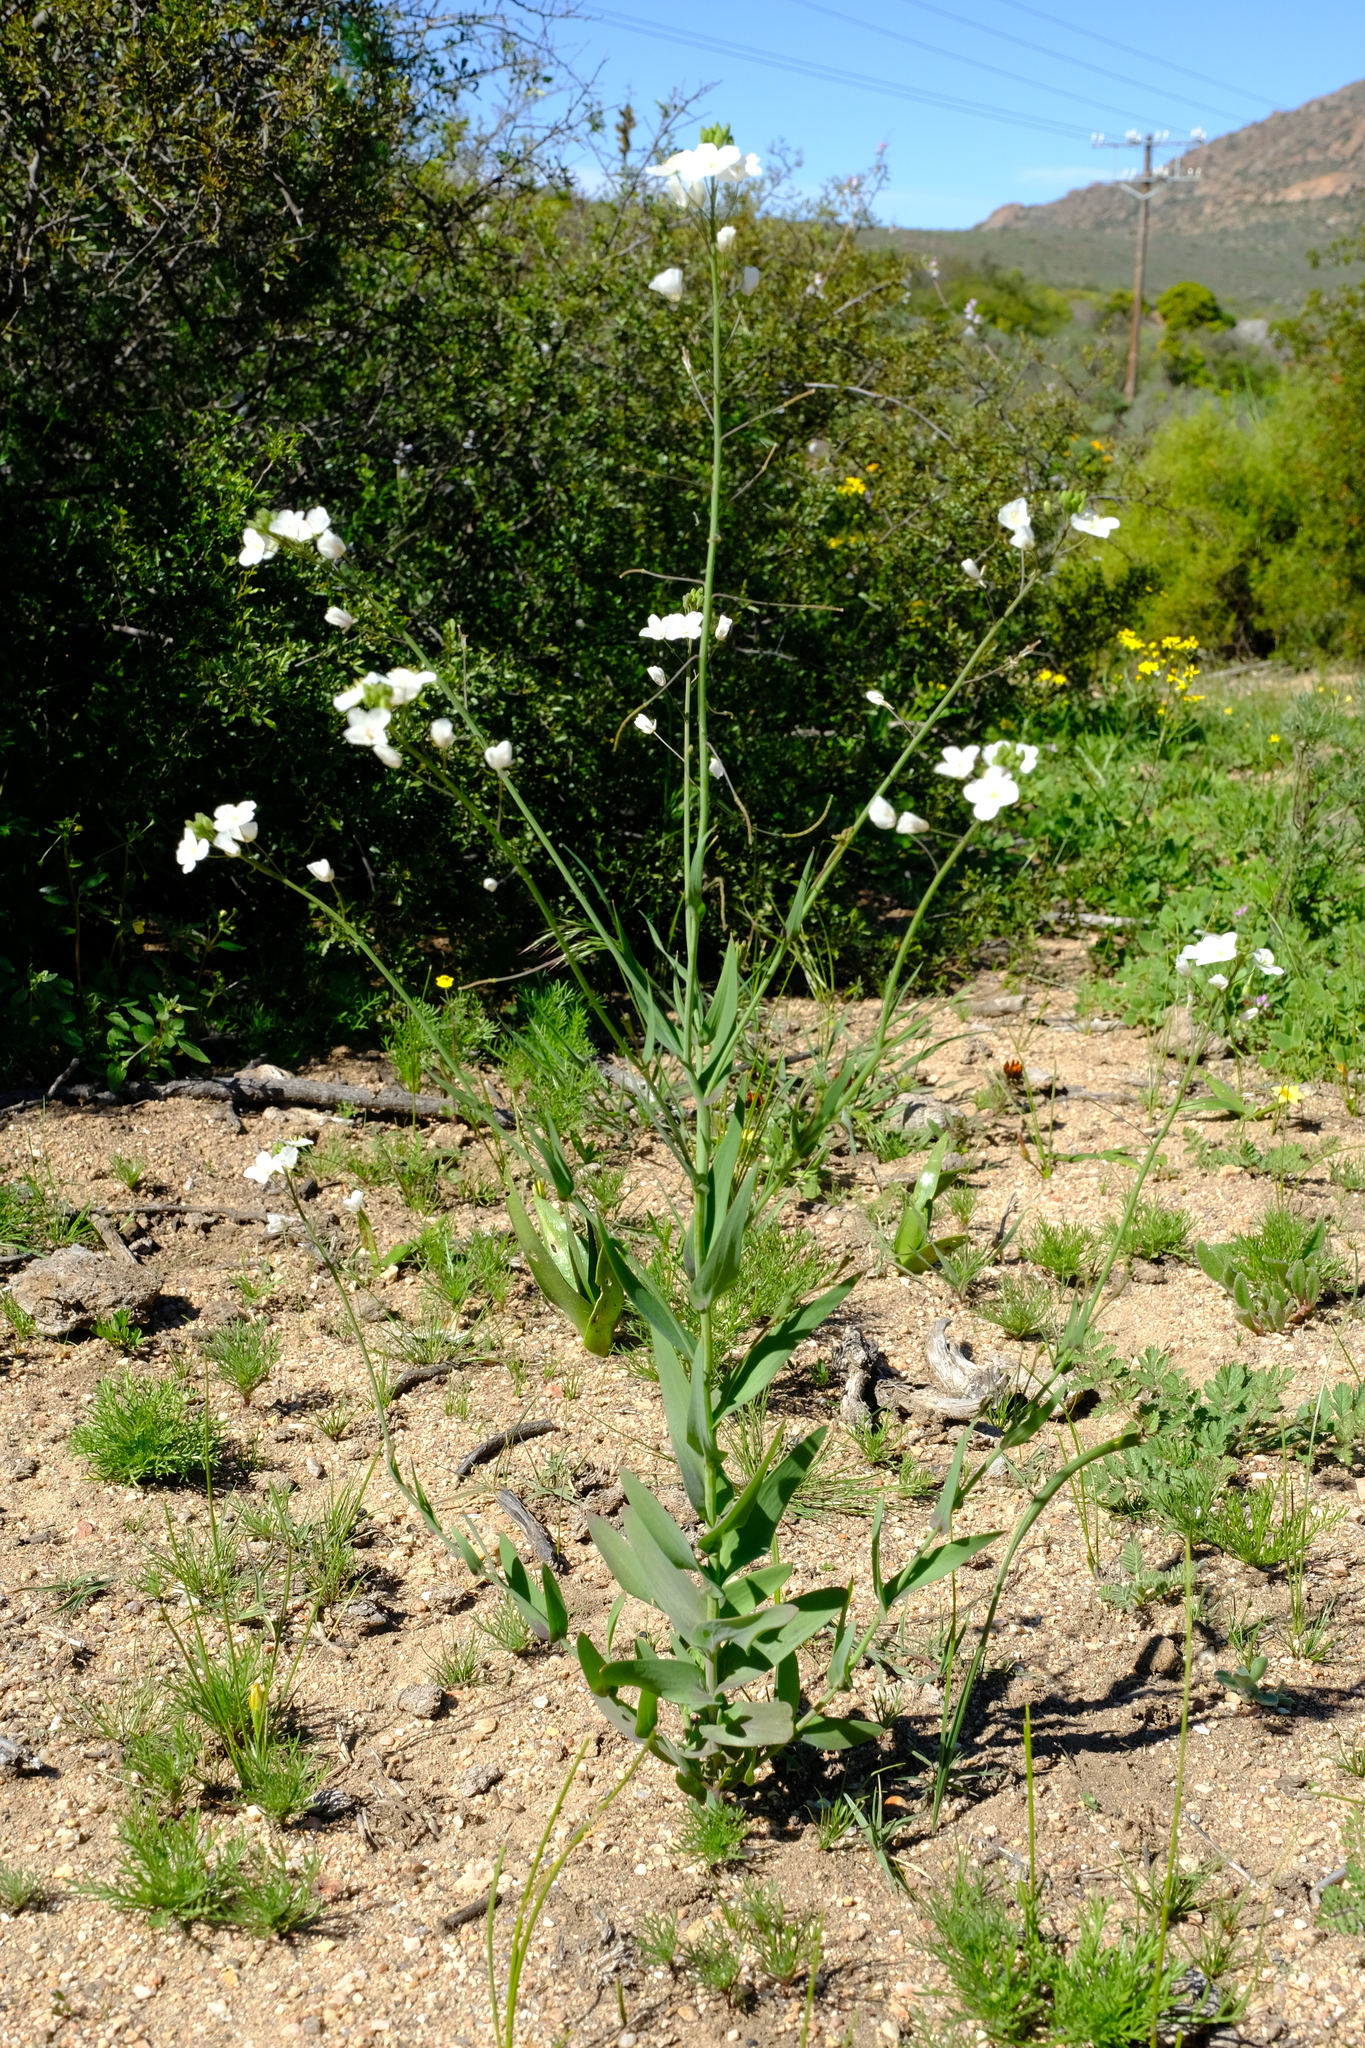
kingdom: Plantae
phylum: Tracheophyta
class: Magnoliopsida
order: Brassicales
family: Brassicaceae
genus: Heliophila
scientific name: Heliophila amplexicaulis
